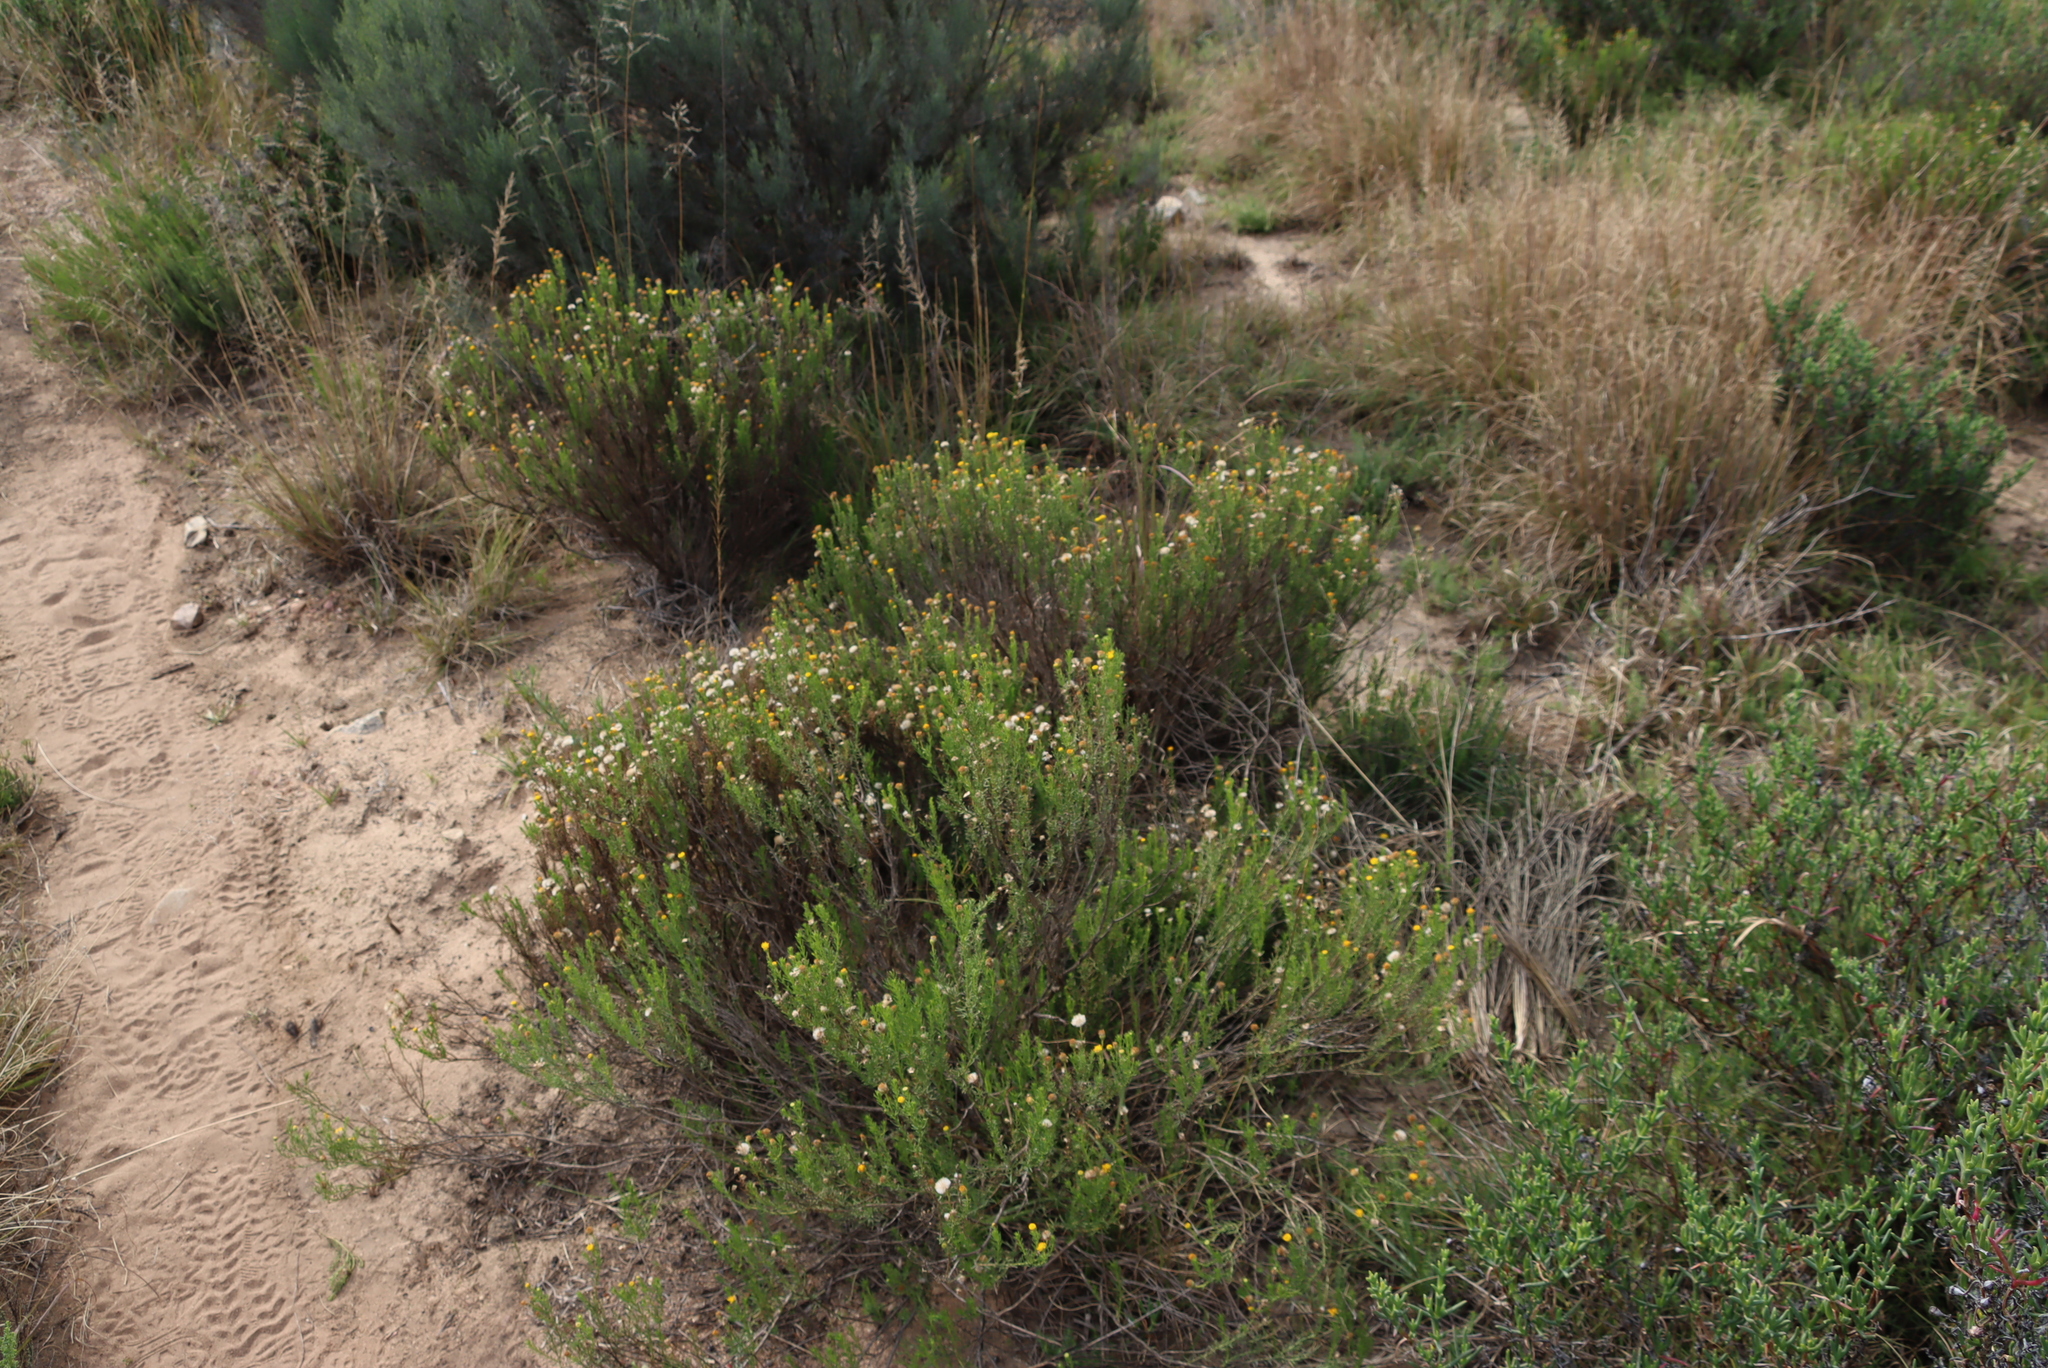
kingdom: Plantae
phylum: Tracheophyta
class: Magnoliopsida
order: Asterales
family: Asteraceae
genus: Chrysocoma
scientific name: Chrysocoma ciliata
